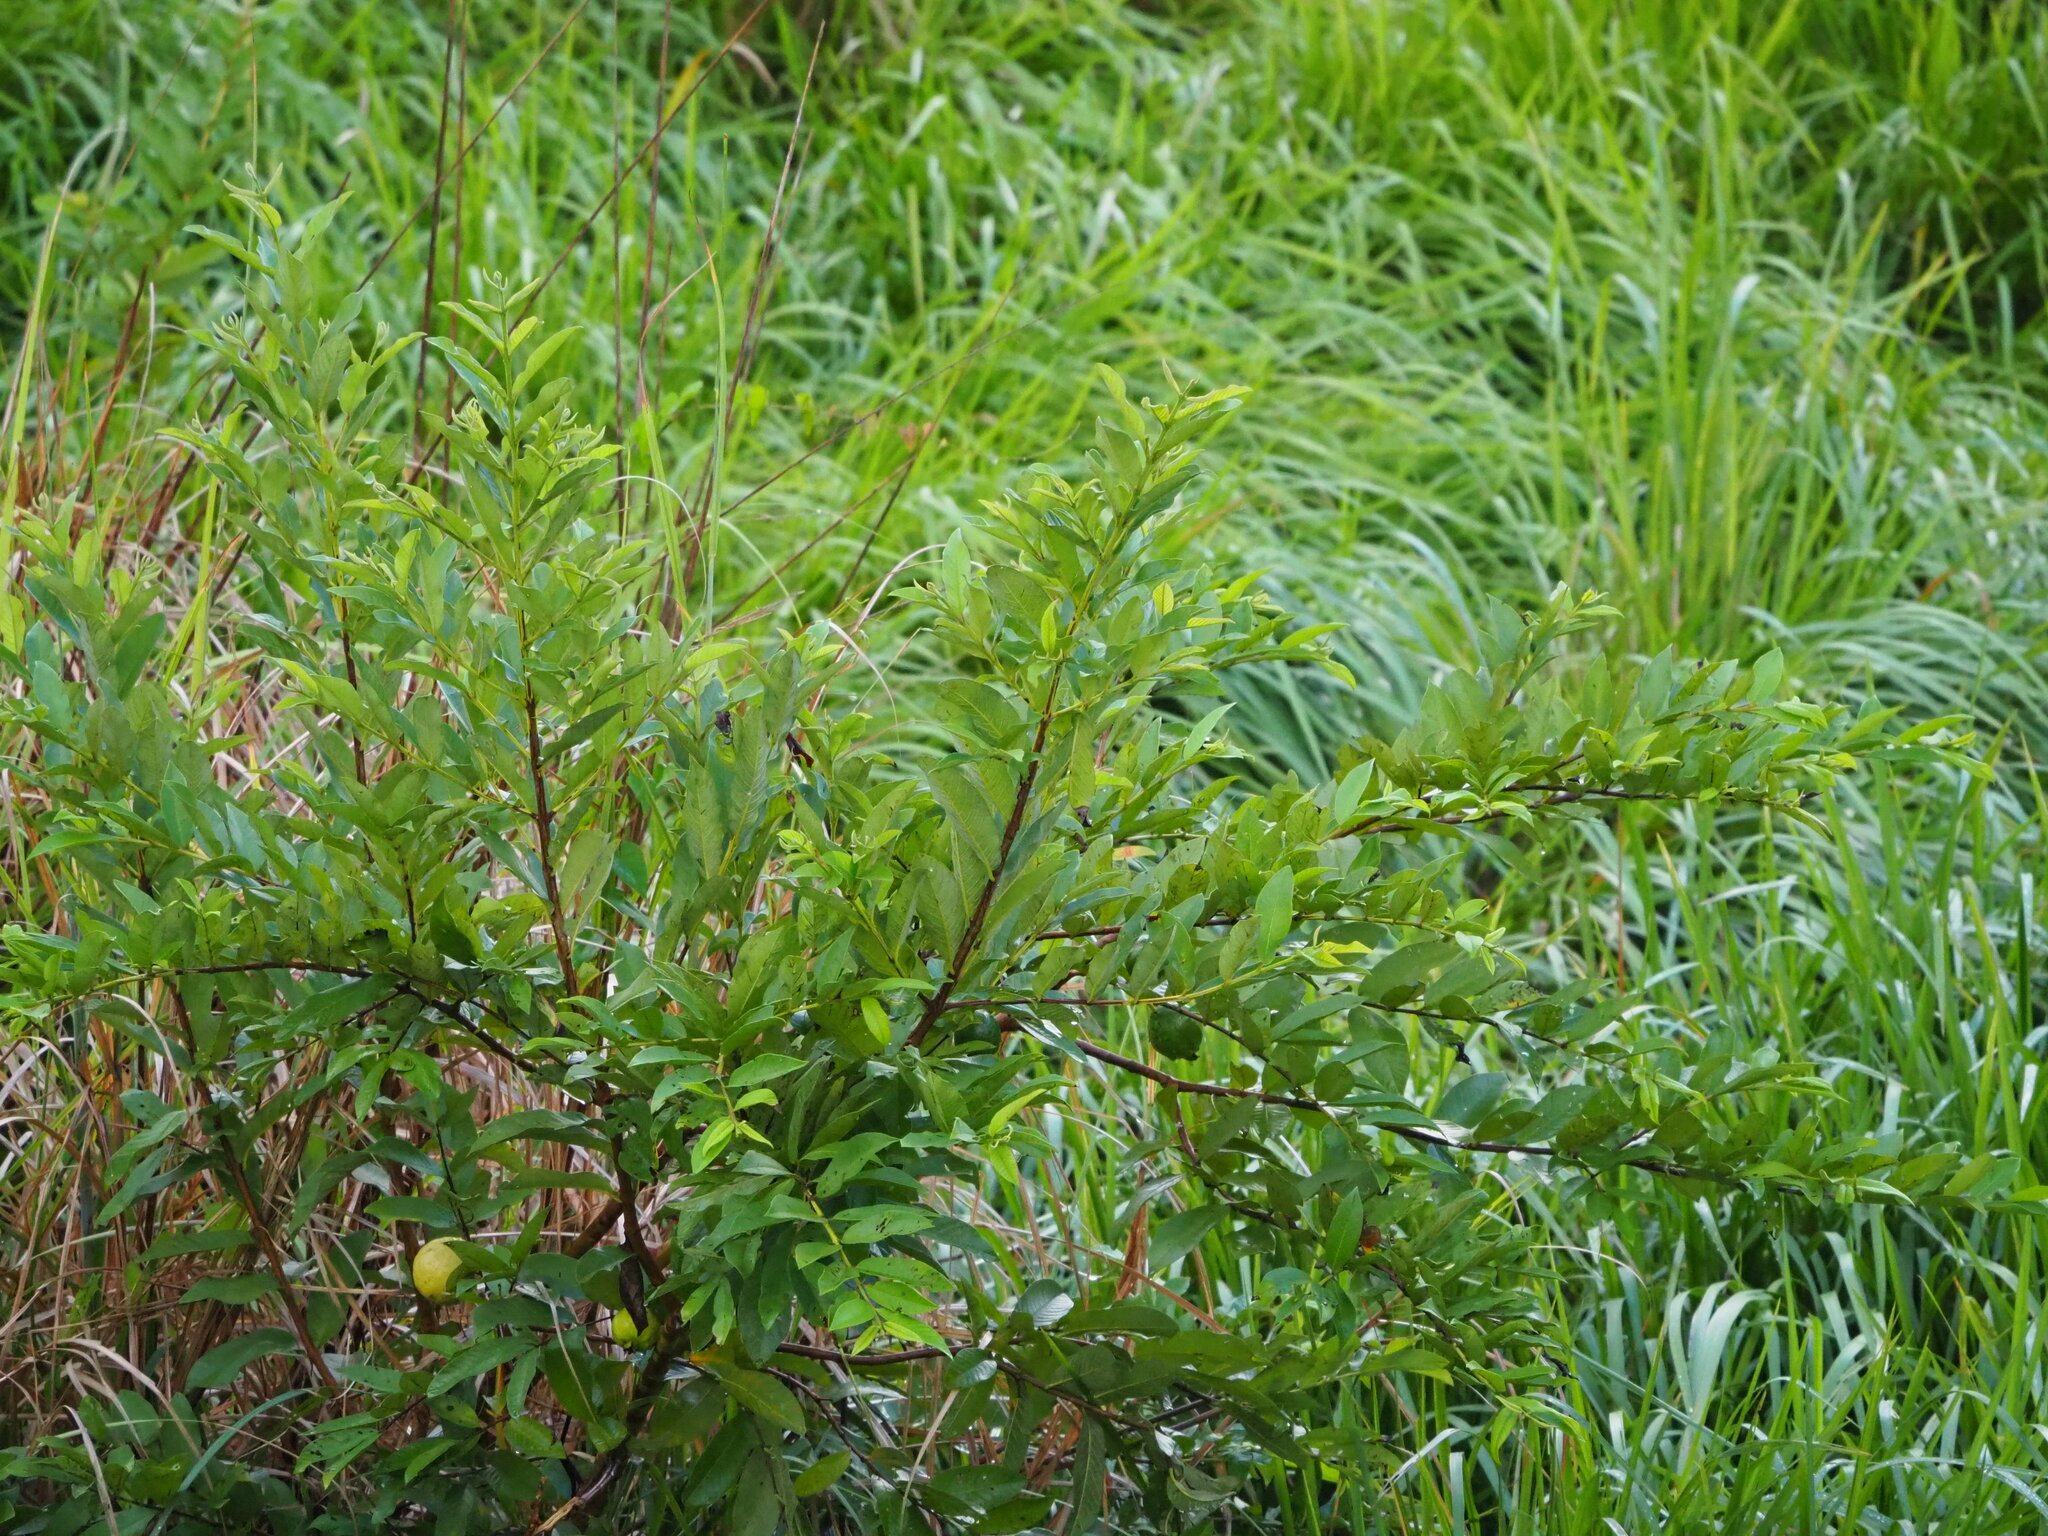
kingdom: Plantae
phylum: Tracheophyta
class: Magnoliopsida
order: Myrtales
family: Myrtaceae
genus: Psidium
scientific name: Psidium guajava
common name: Guava
